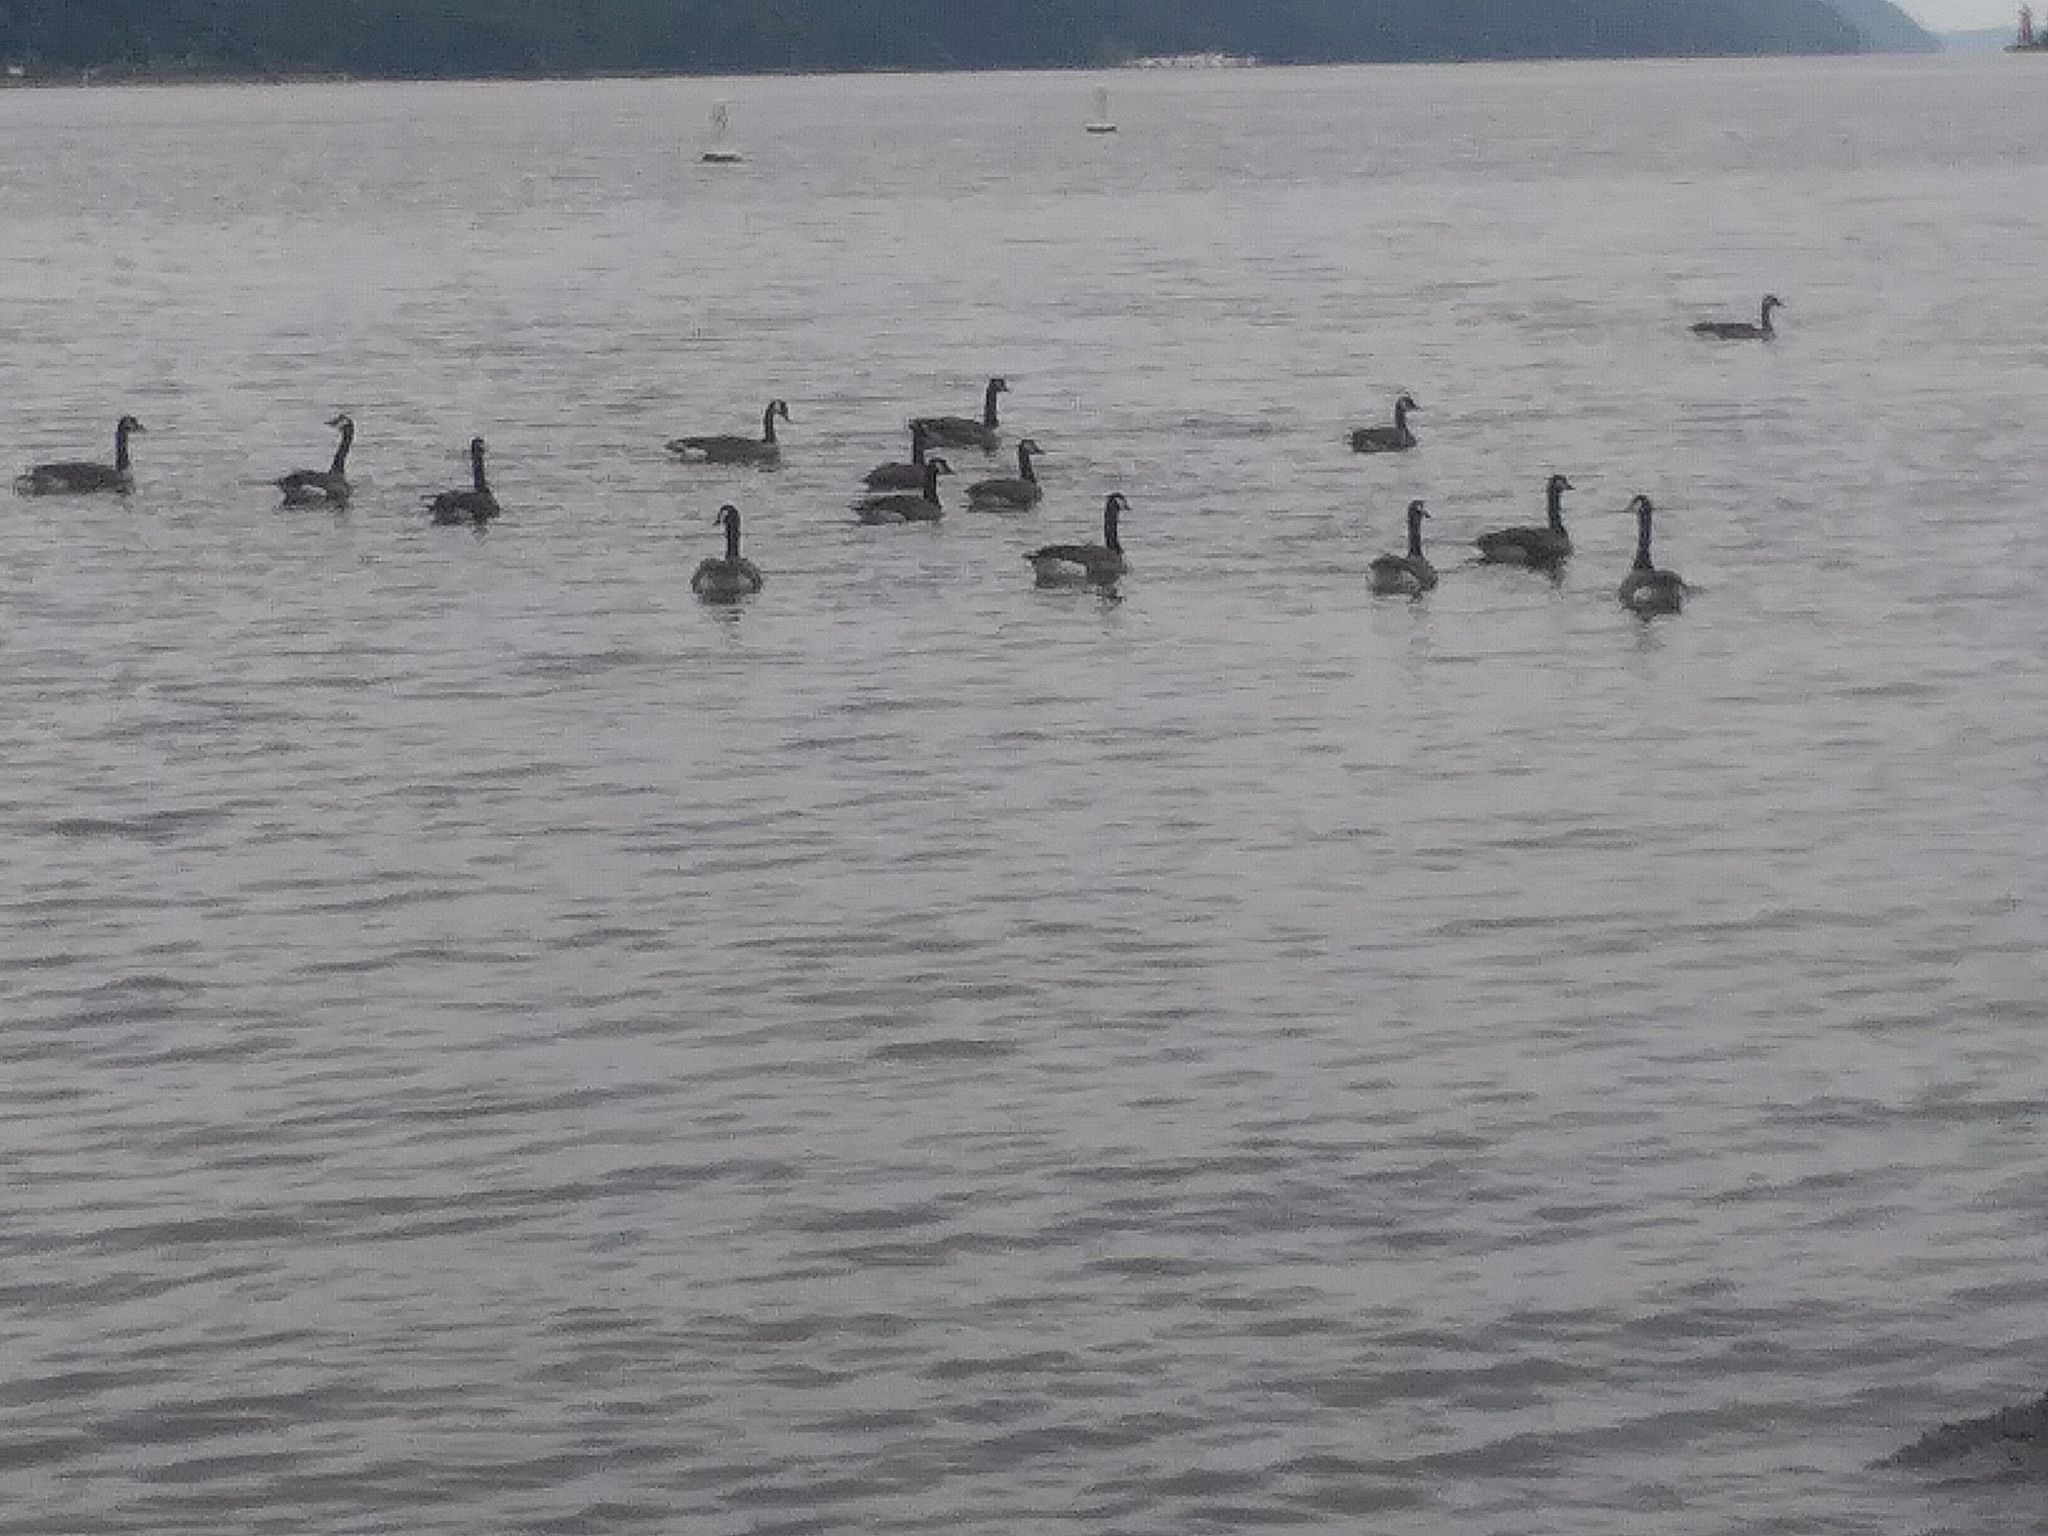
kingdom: Animalia
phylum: Chordata
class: Aves
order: Anseriformes
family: Anatidae
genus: Branta
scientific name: Branta canadensis
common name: Canada goose
